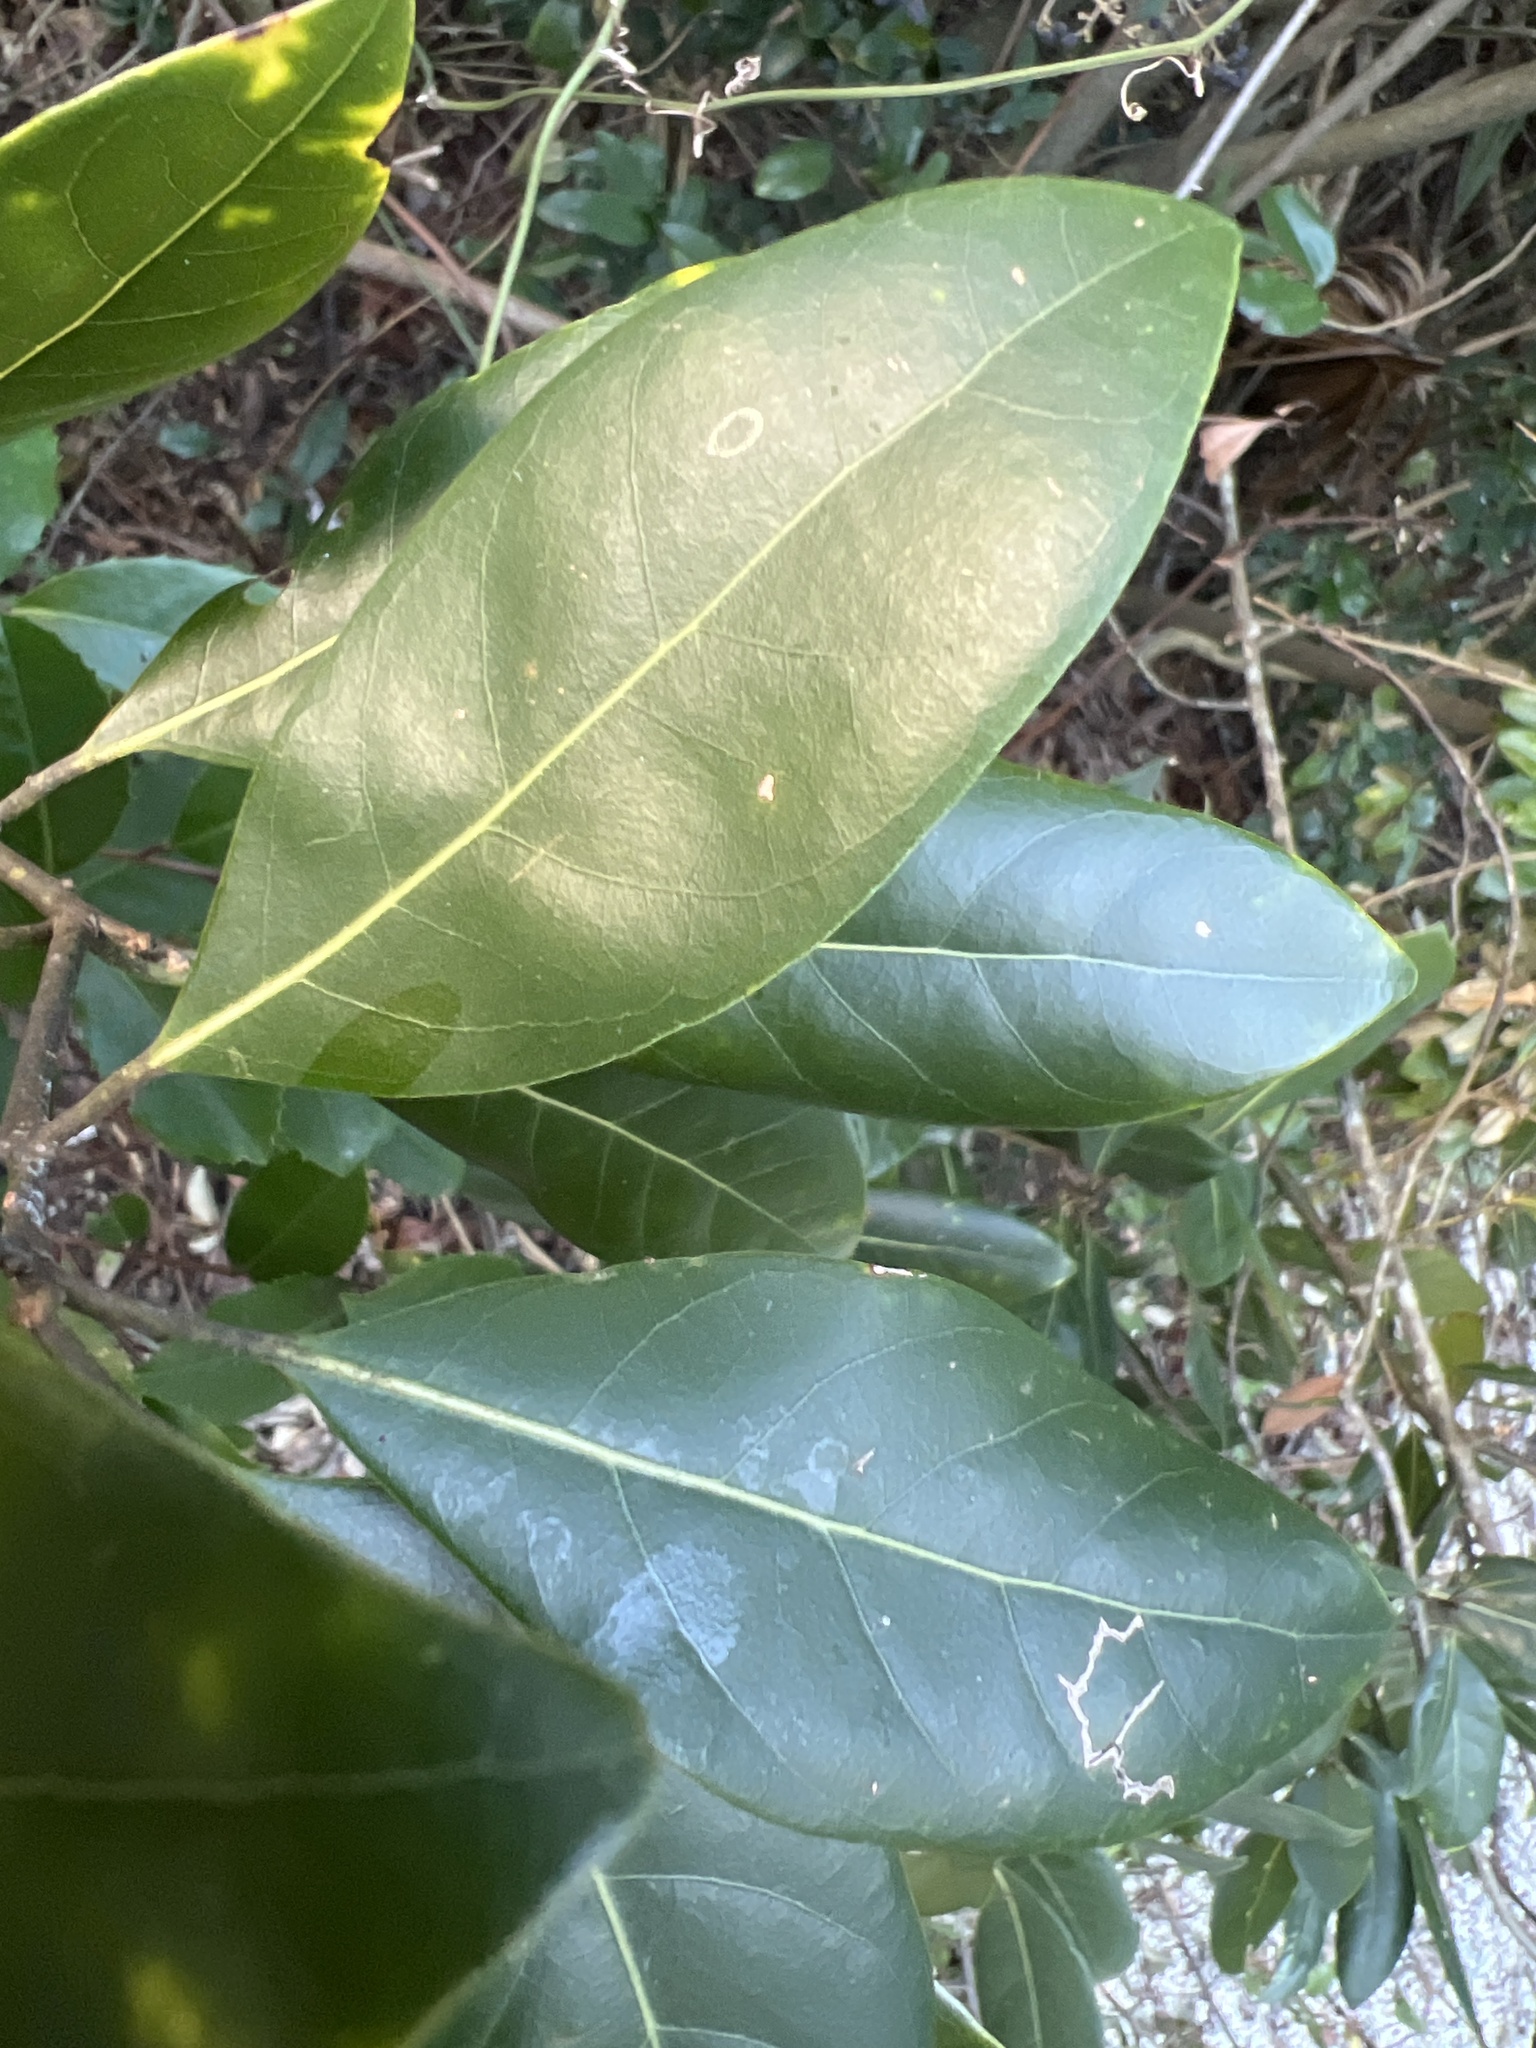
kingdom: Plantae
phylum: Tracheophyta
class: Magnoliopsida
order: Laurales
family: Lauraceae
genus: Persea
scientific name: Persea borbonia
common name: Redbay
